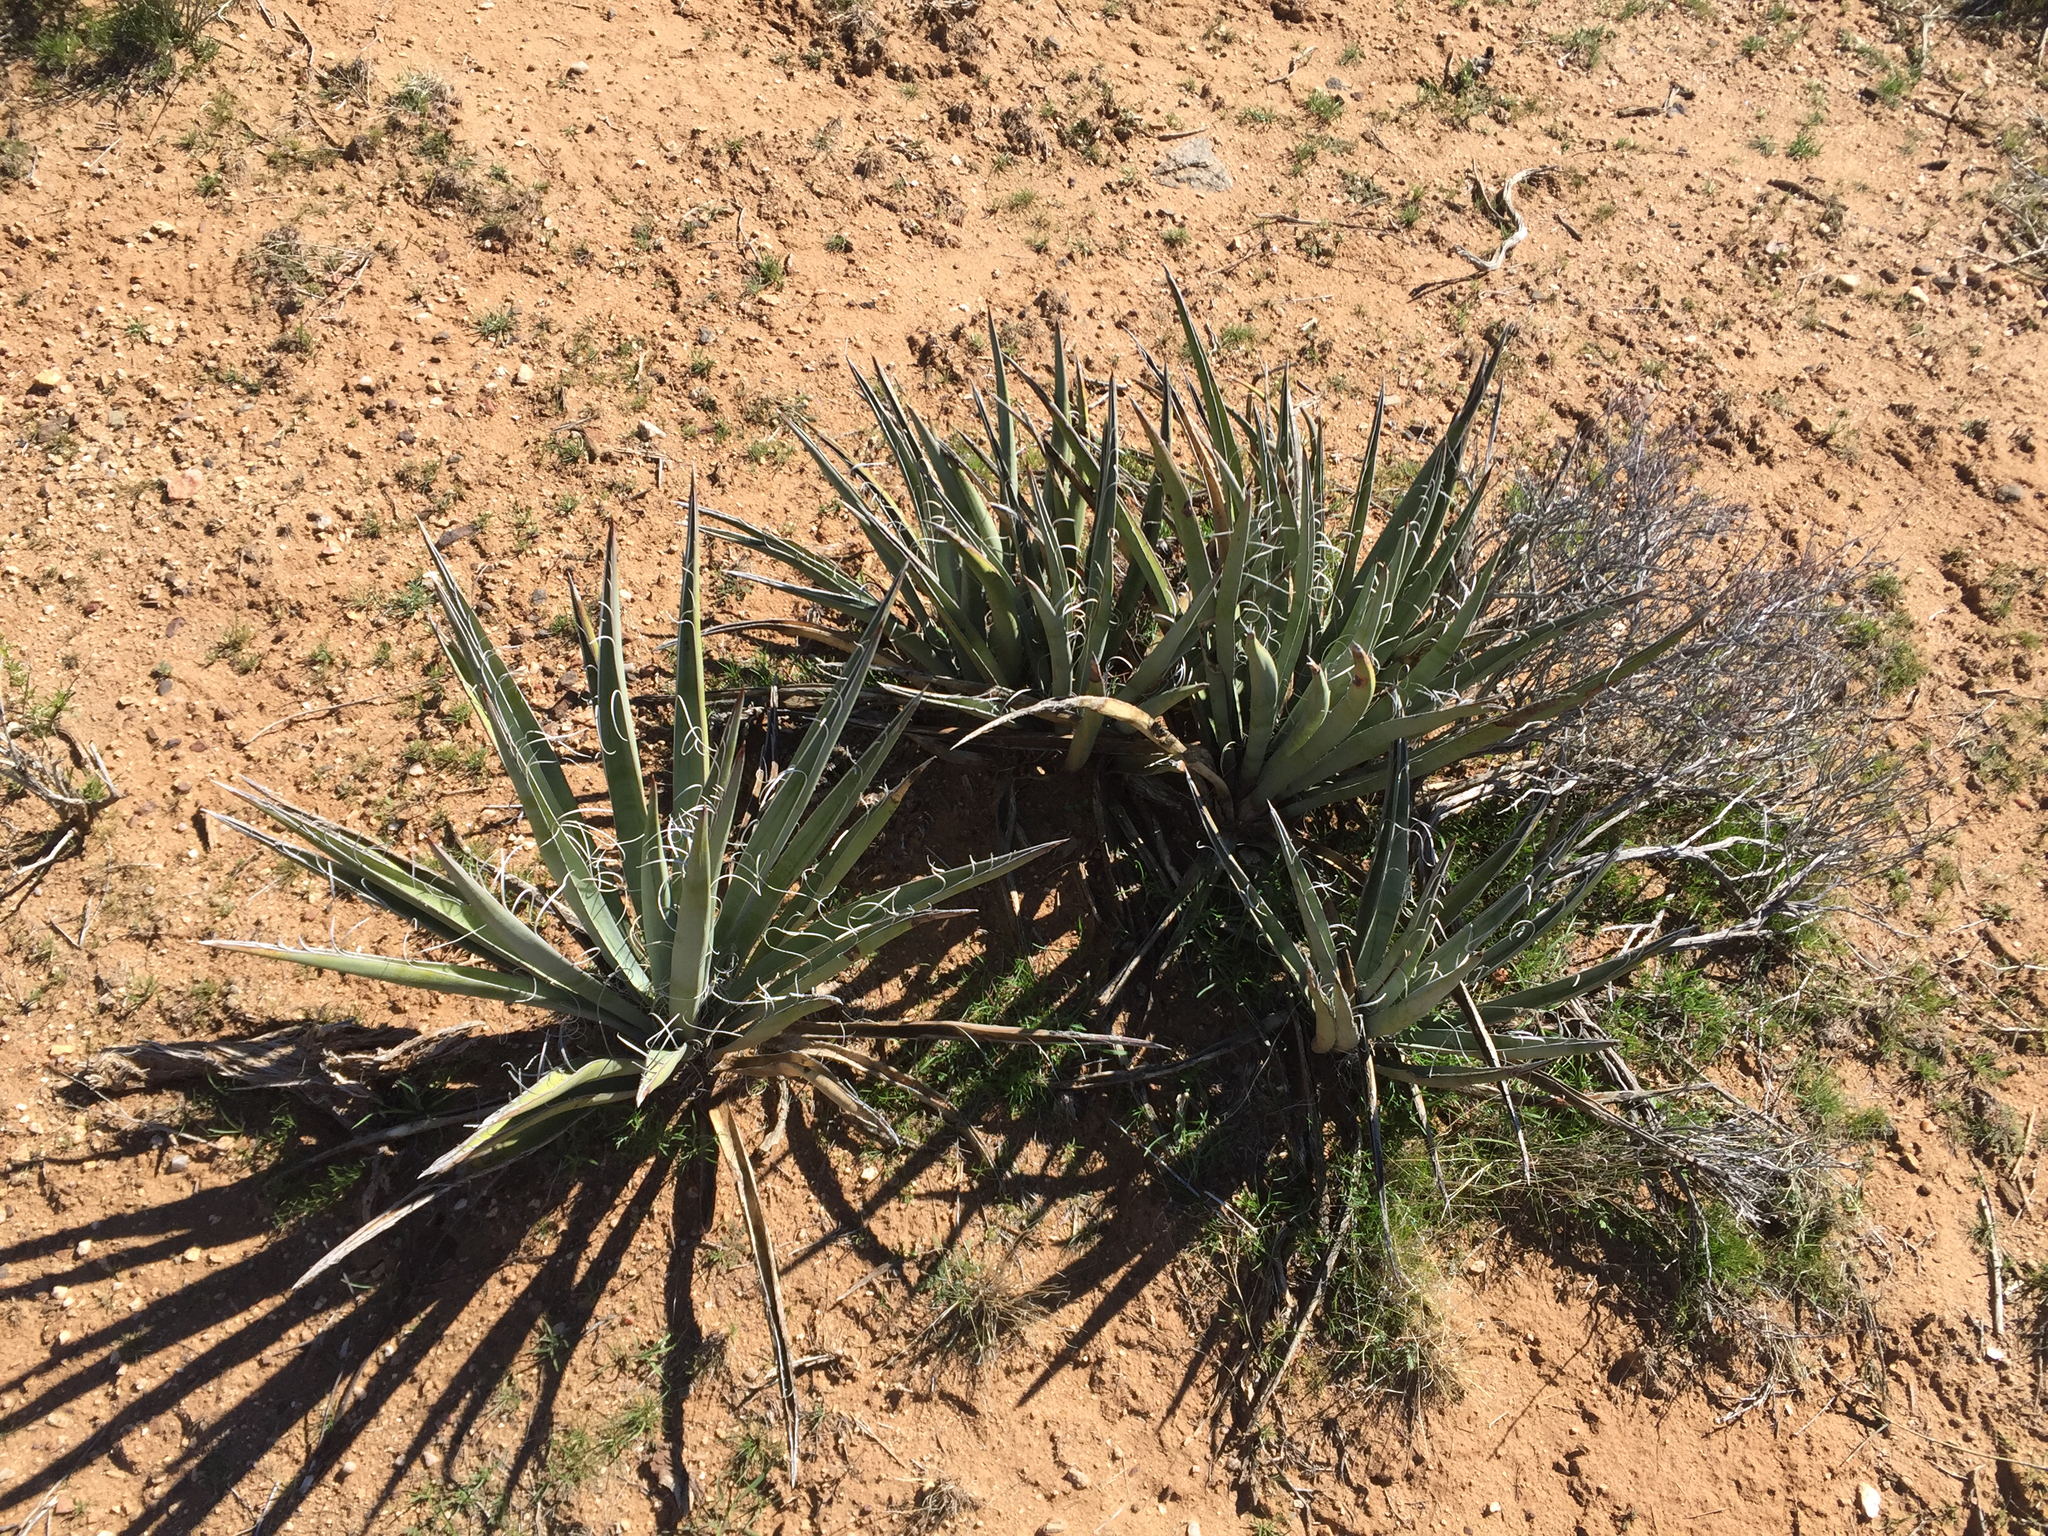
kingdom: Plantae
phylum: Tracheophyta
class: Liliopsida
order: Asparagales
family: Asparagaceae
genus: Yucca
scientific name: Yucca baccata
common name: Banana yucca
